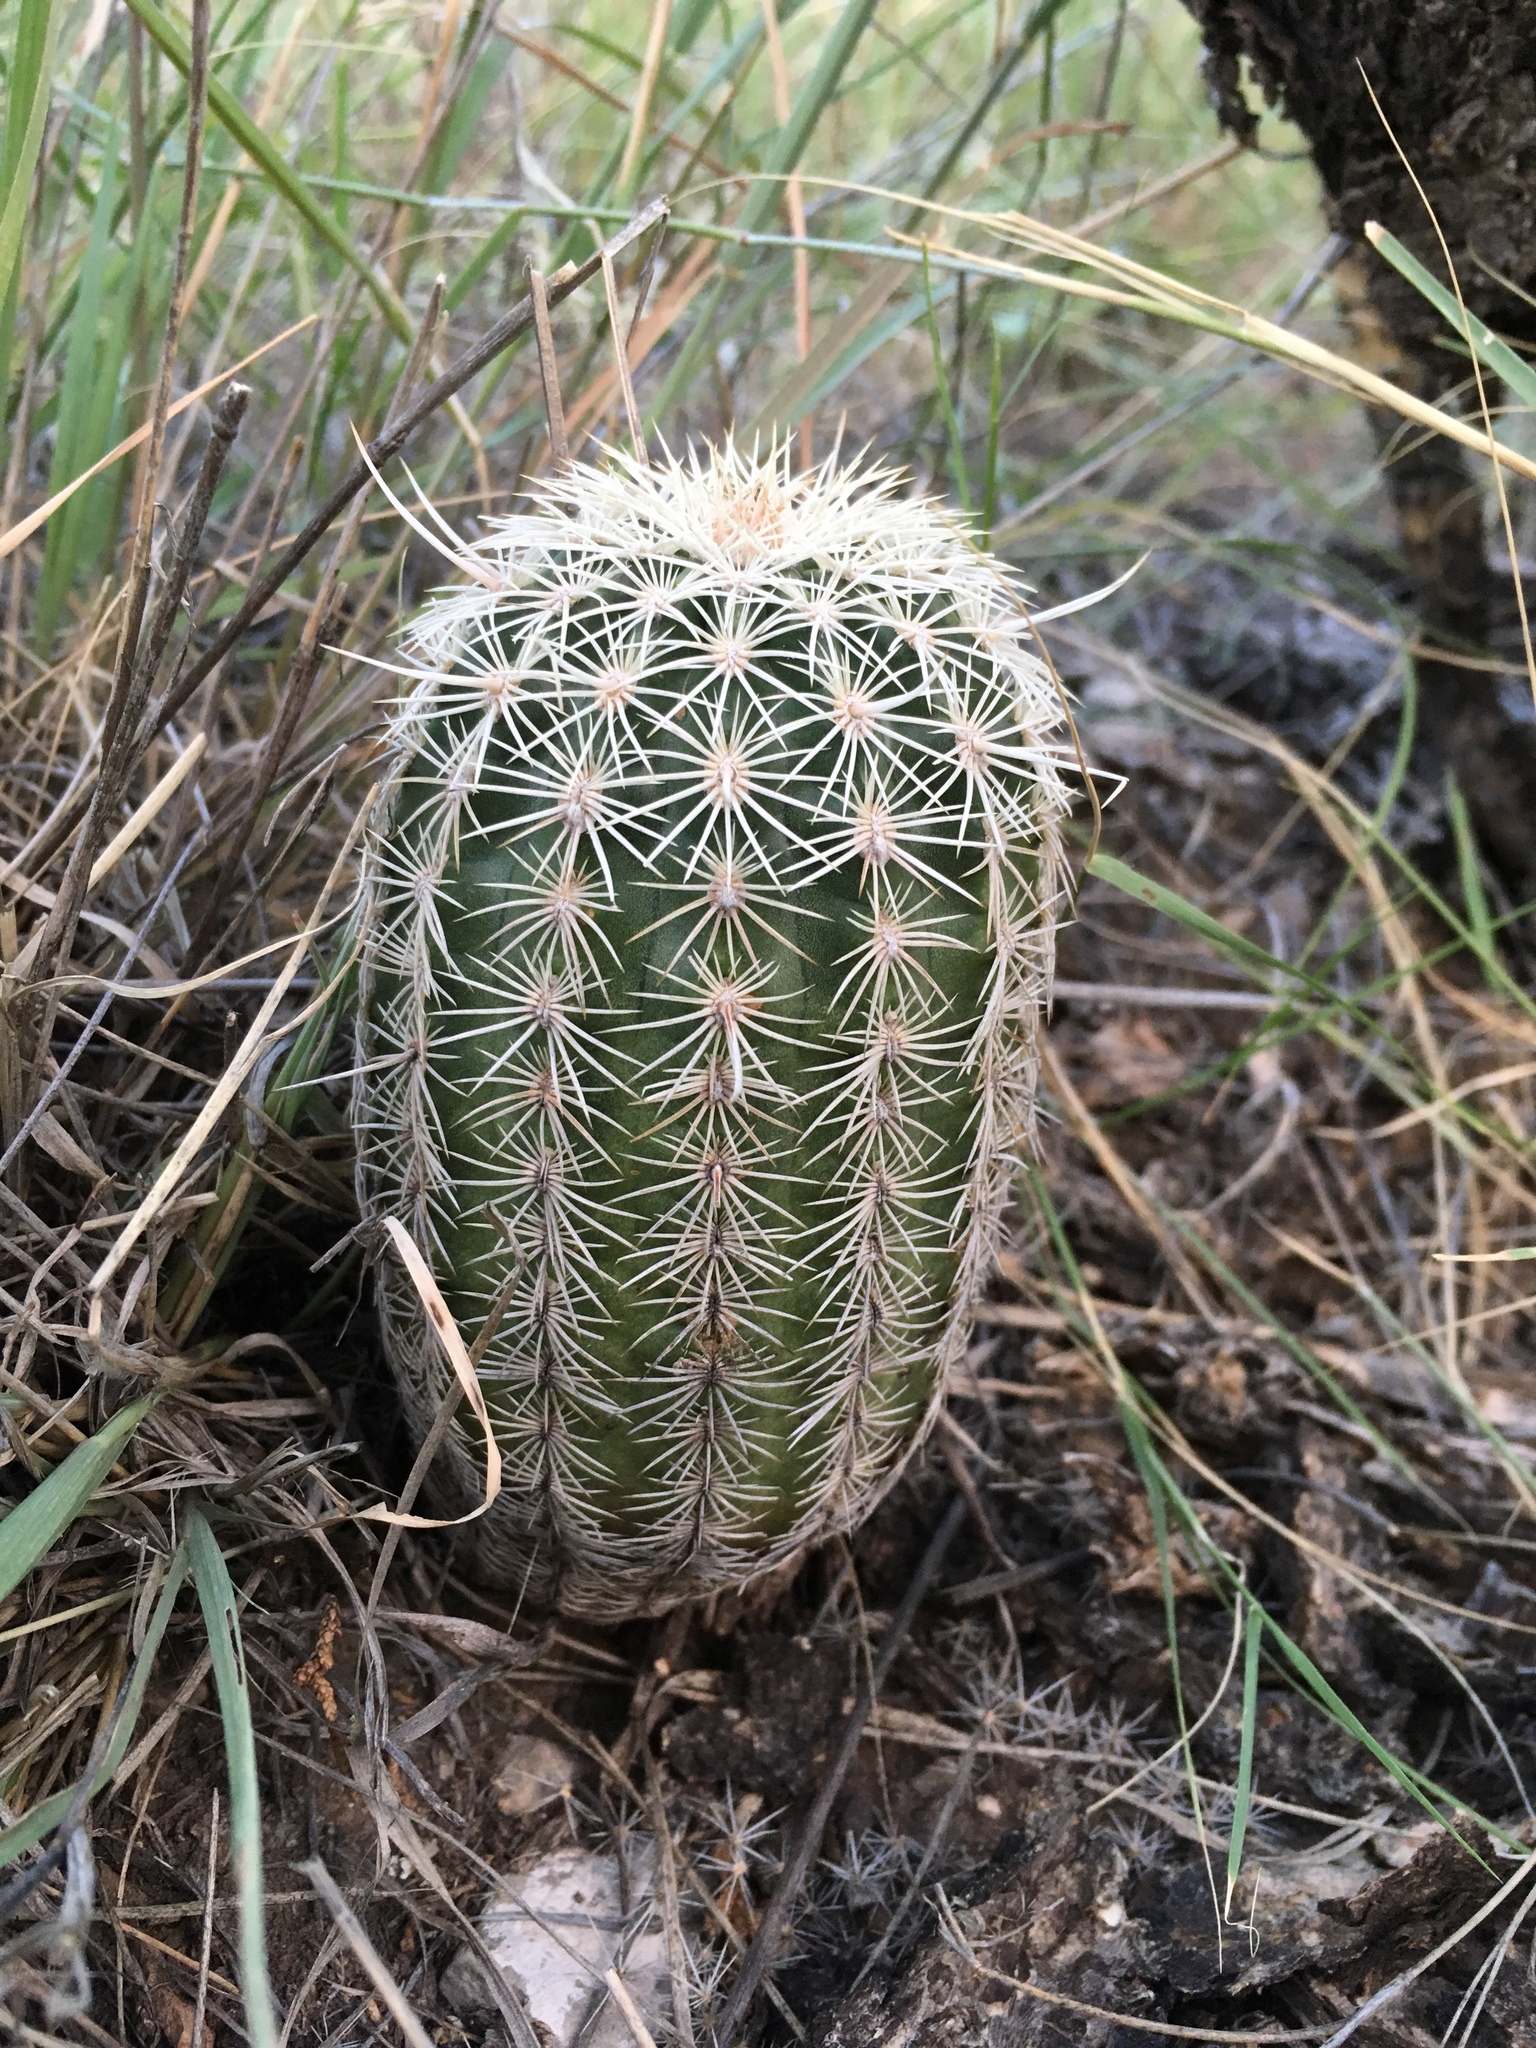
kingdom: Plantae
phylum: Tracheophyta
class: Magnoliopsida
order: Caryophyllales
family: Cactaceae
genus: Echinocereus
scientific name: Echinocereus viridiflorus
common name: Nylon hedgehog cactus
